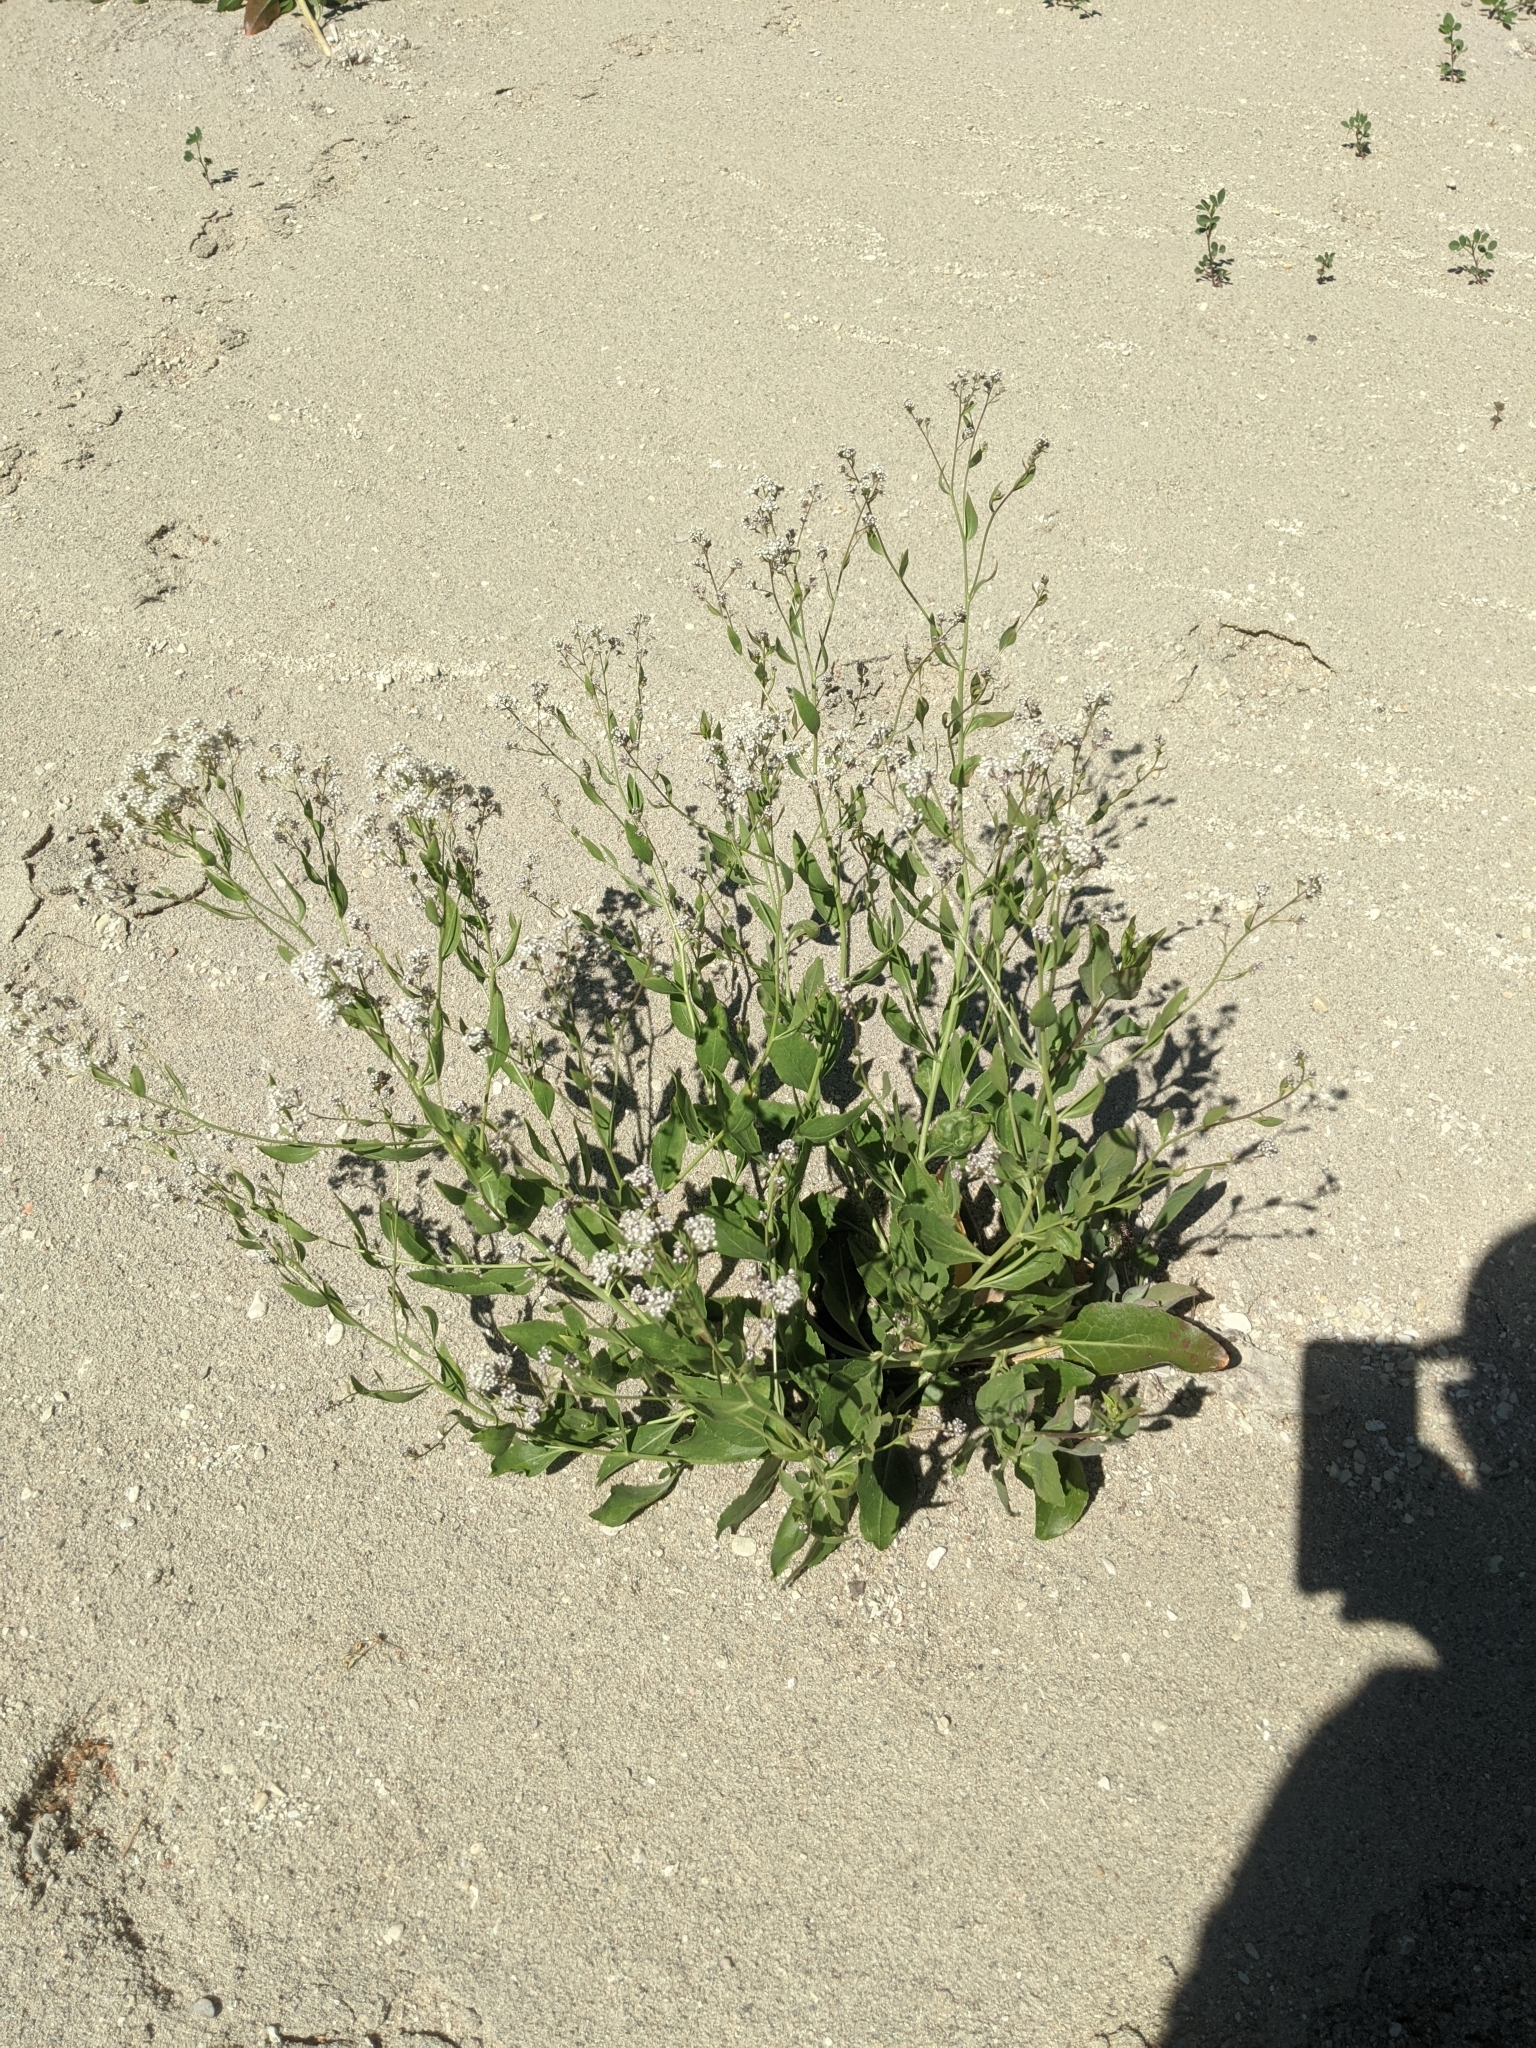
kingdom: Plantae
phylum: Tracheophyta
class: Magnoliopsida
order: Brassicales
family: Brassicaceae
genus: Lepidium
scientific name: Lepidium latifolium
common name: Dittander
